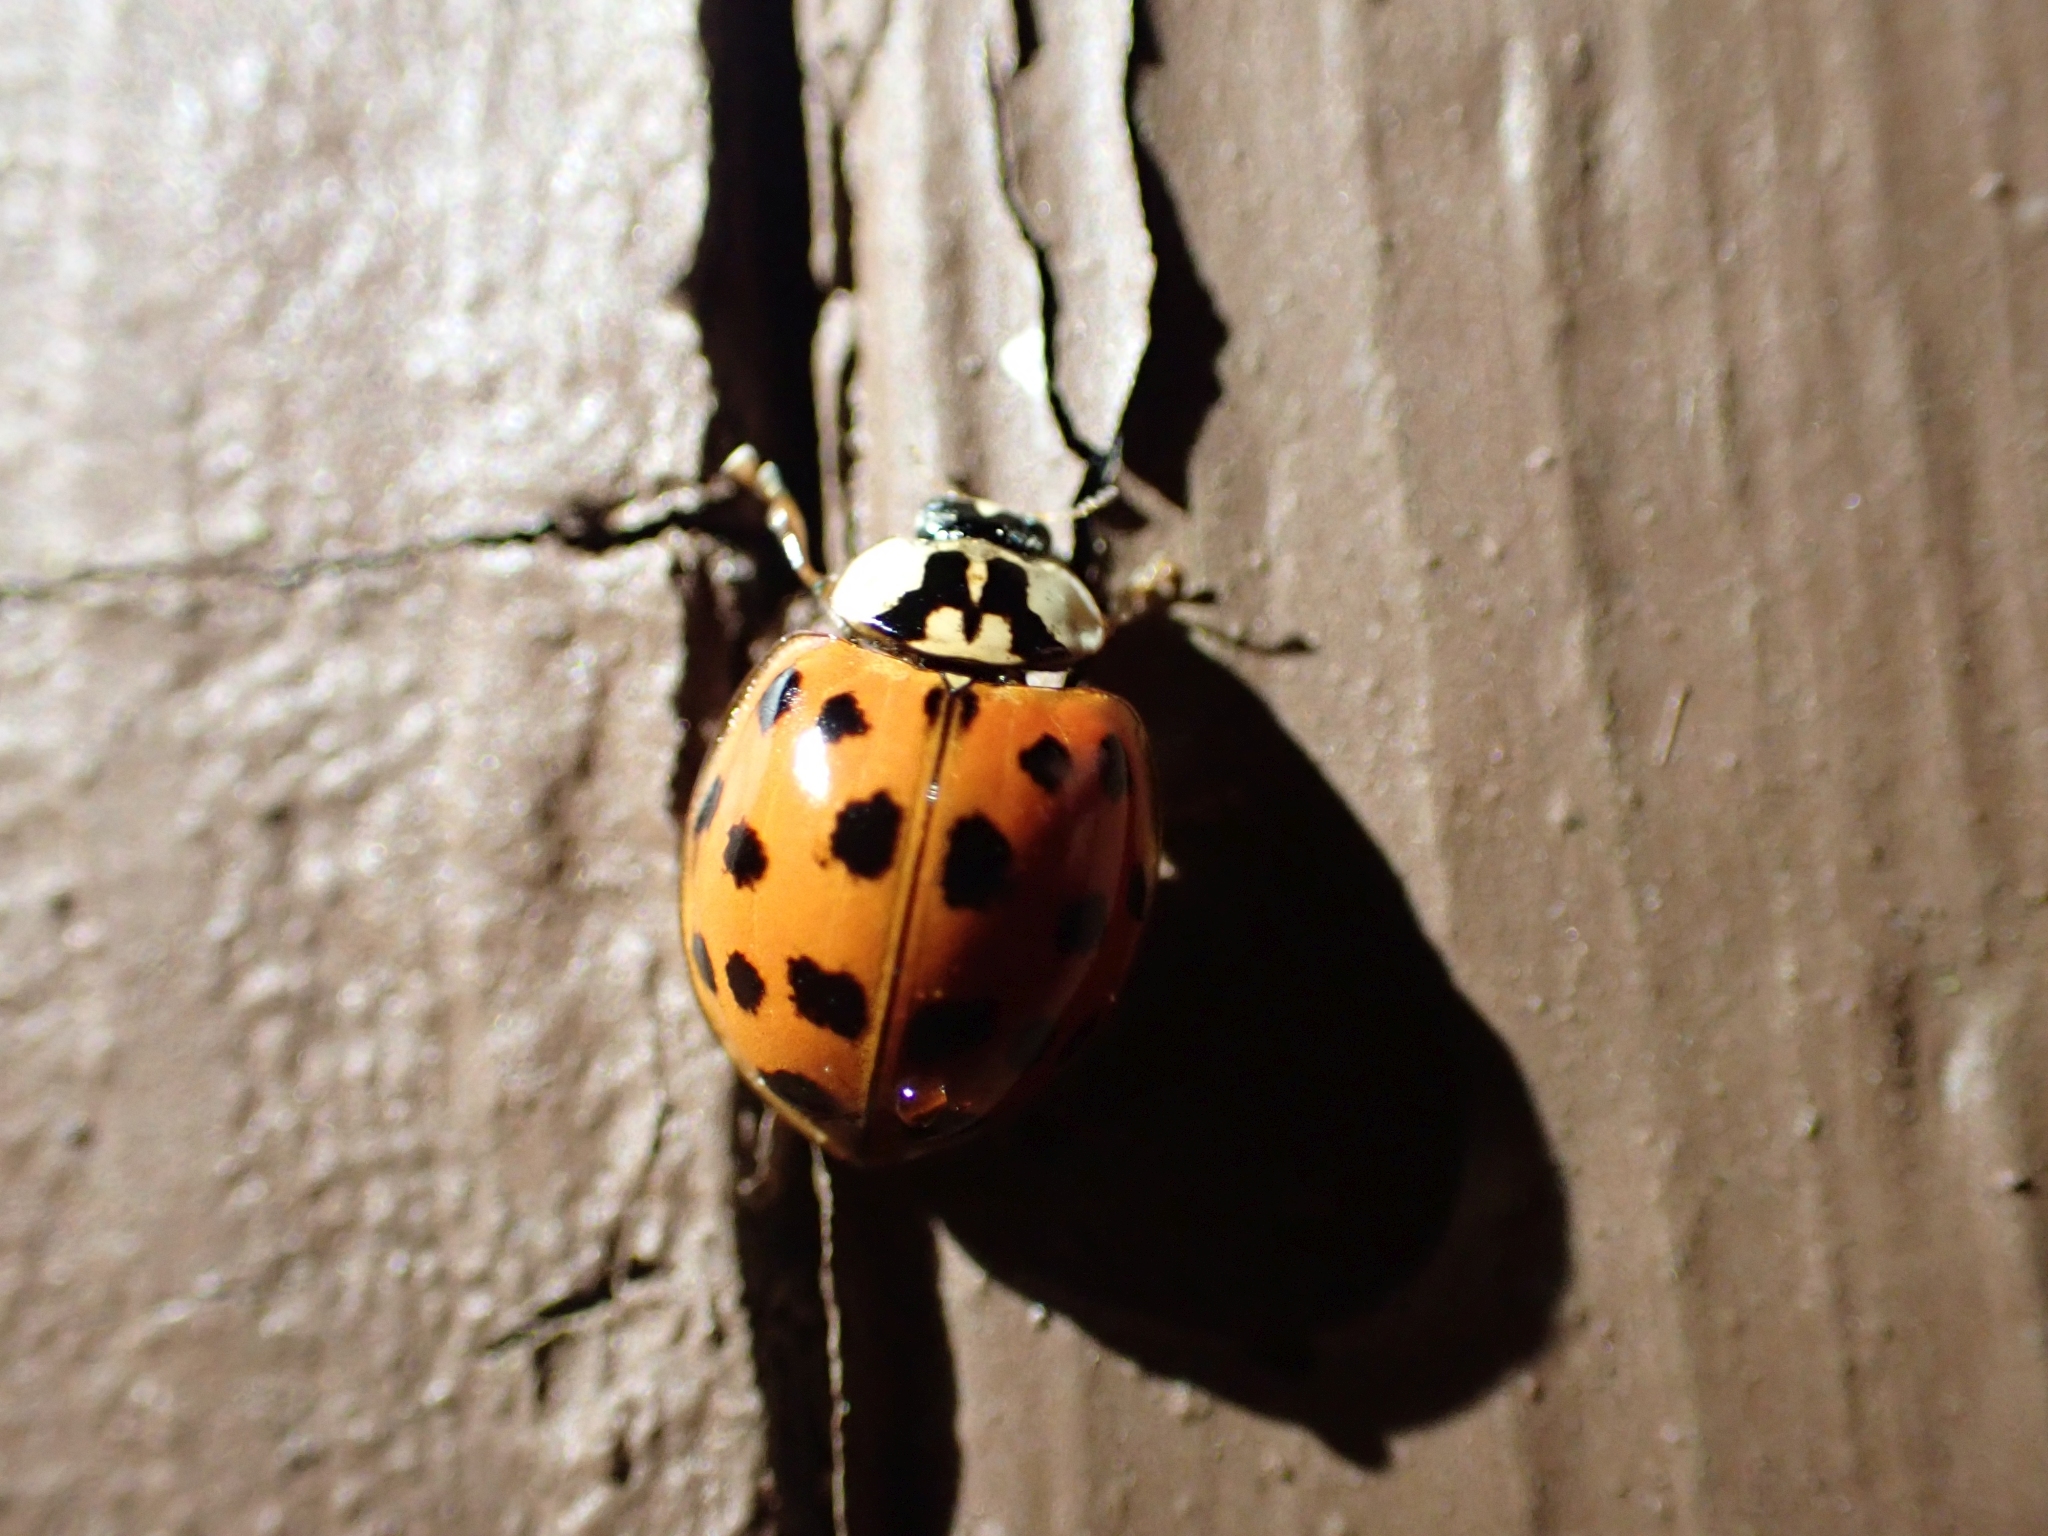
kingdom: Animalia
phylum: Arthropoda
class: Insecta
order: Coleoptera
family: Coccinellidae
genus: Harmonia
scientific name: Harmonia axyridis
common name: Harlequin ladybird
